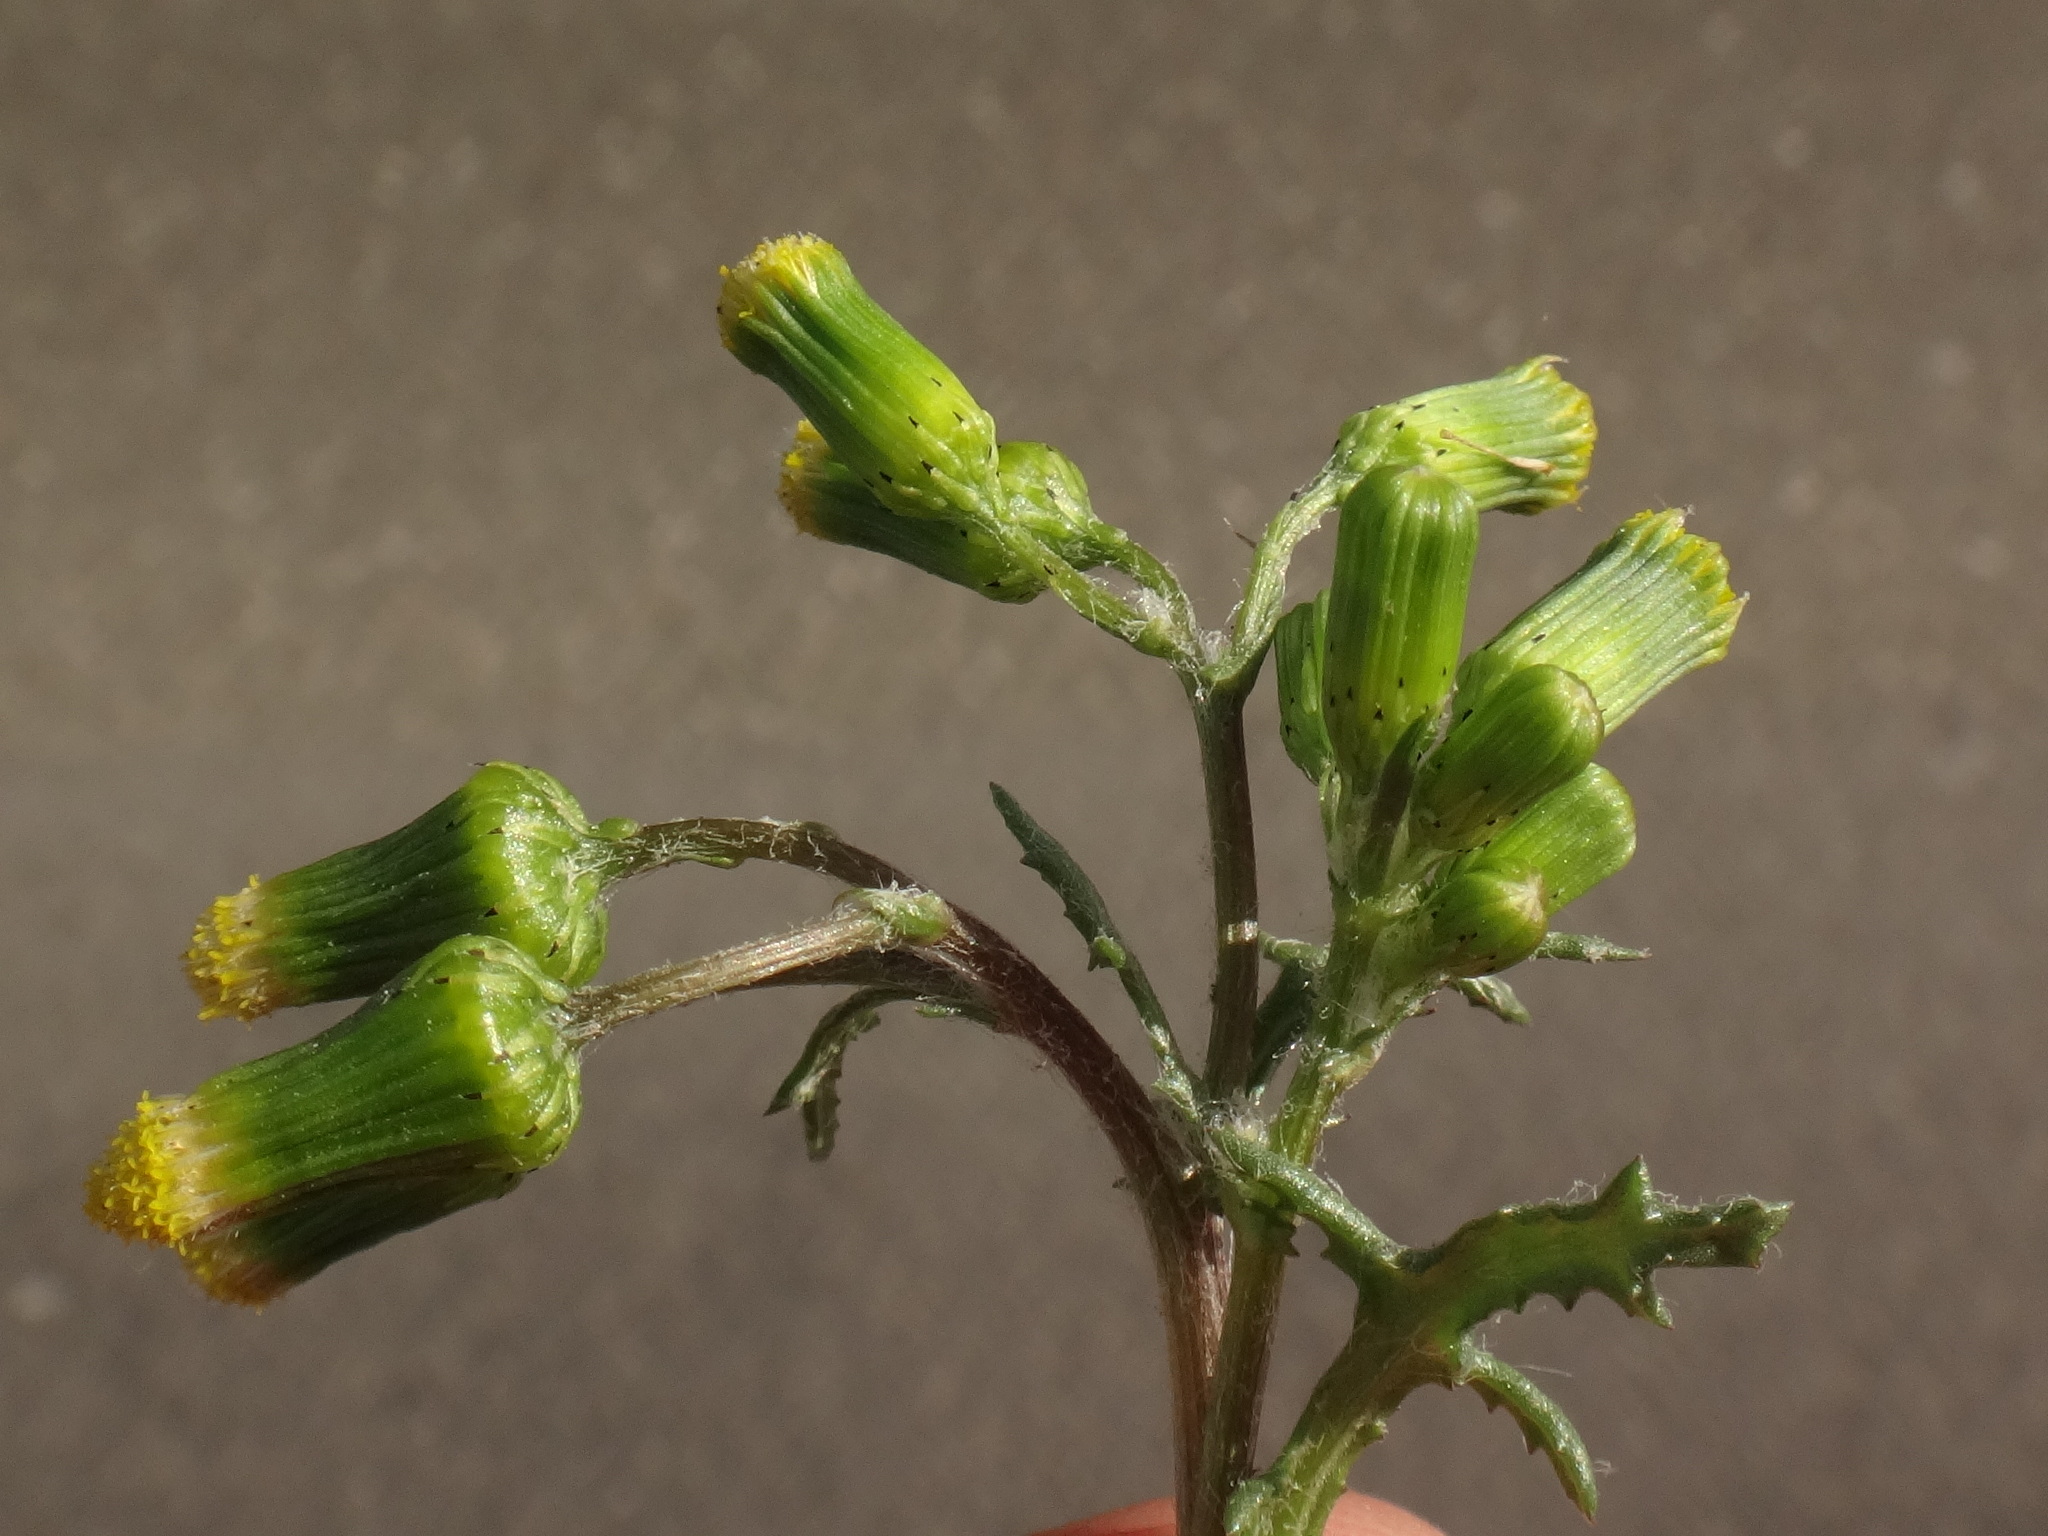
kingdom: Plantae
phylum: Tracheophyta
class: Magnoliopsida
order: Asterales
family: Asteraceae
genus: Senecio
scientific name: Senecio vulgaris
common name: Old-man-in-the-spring
